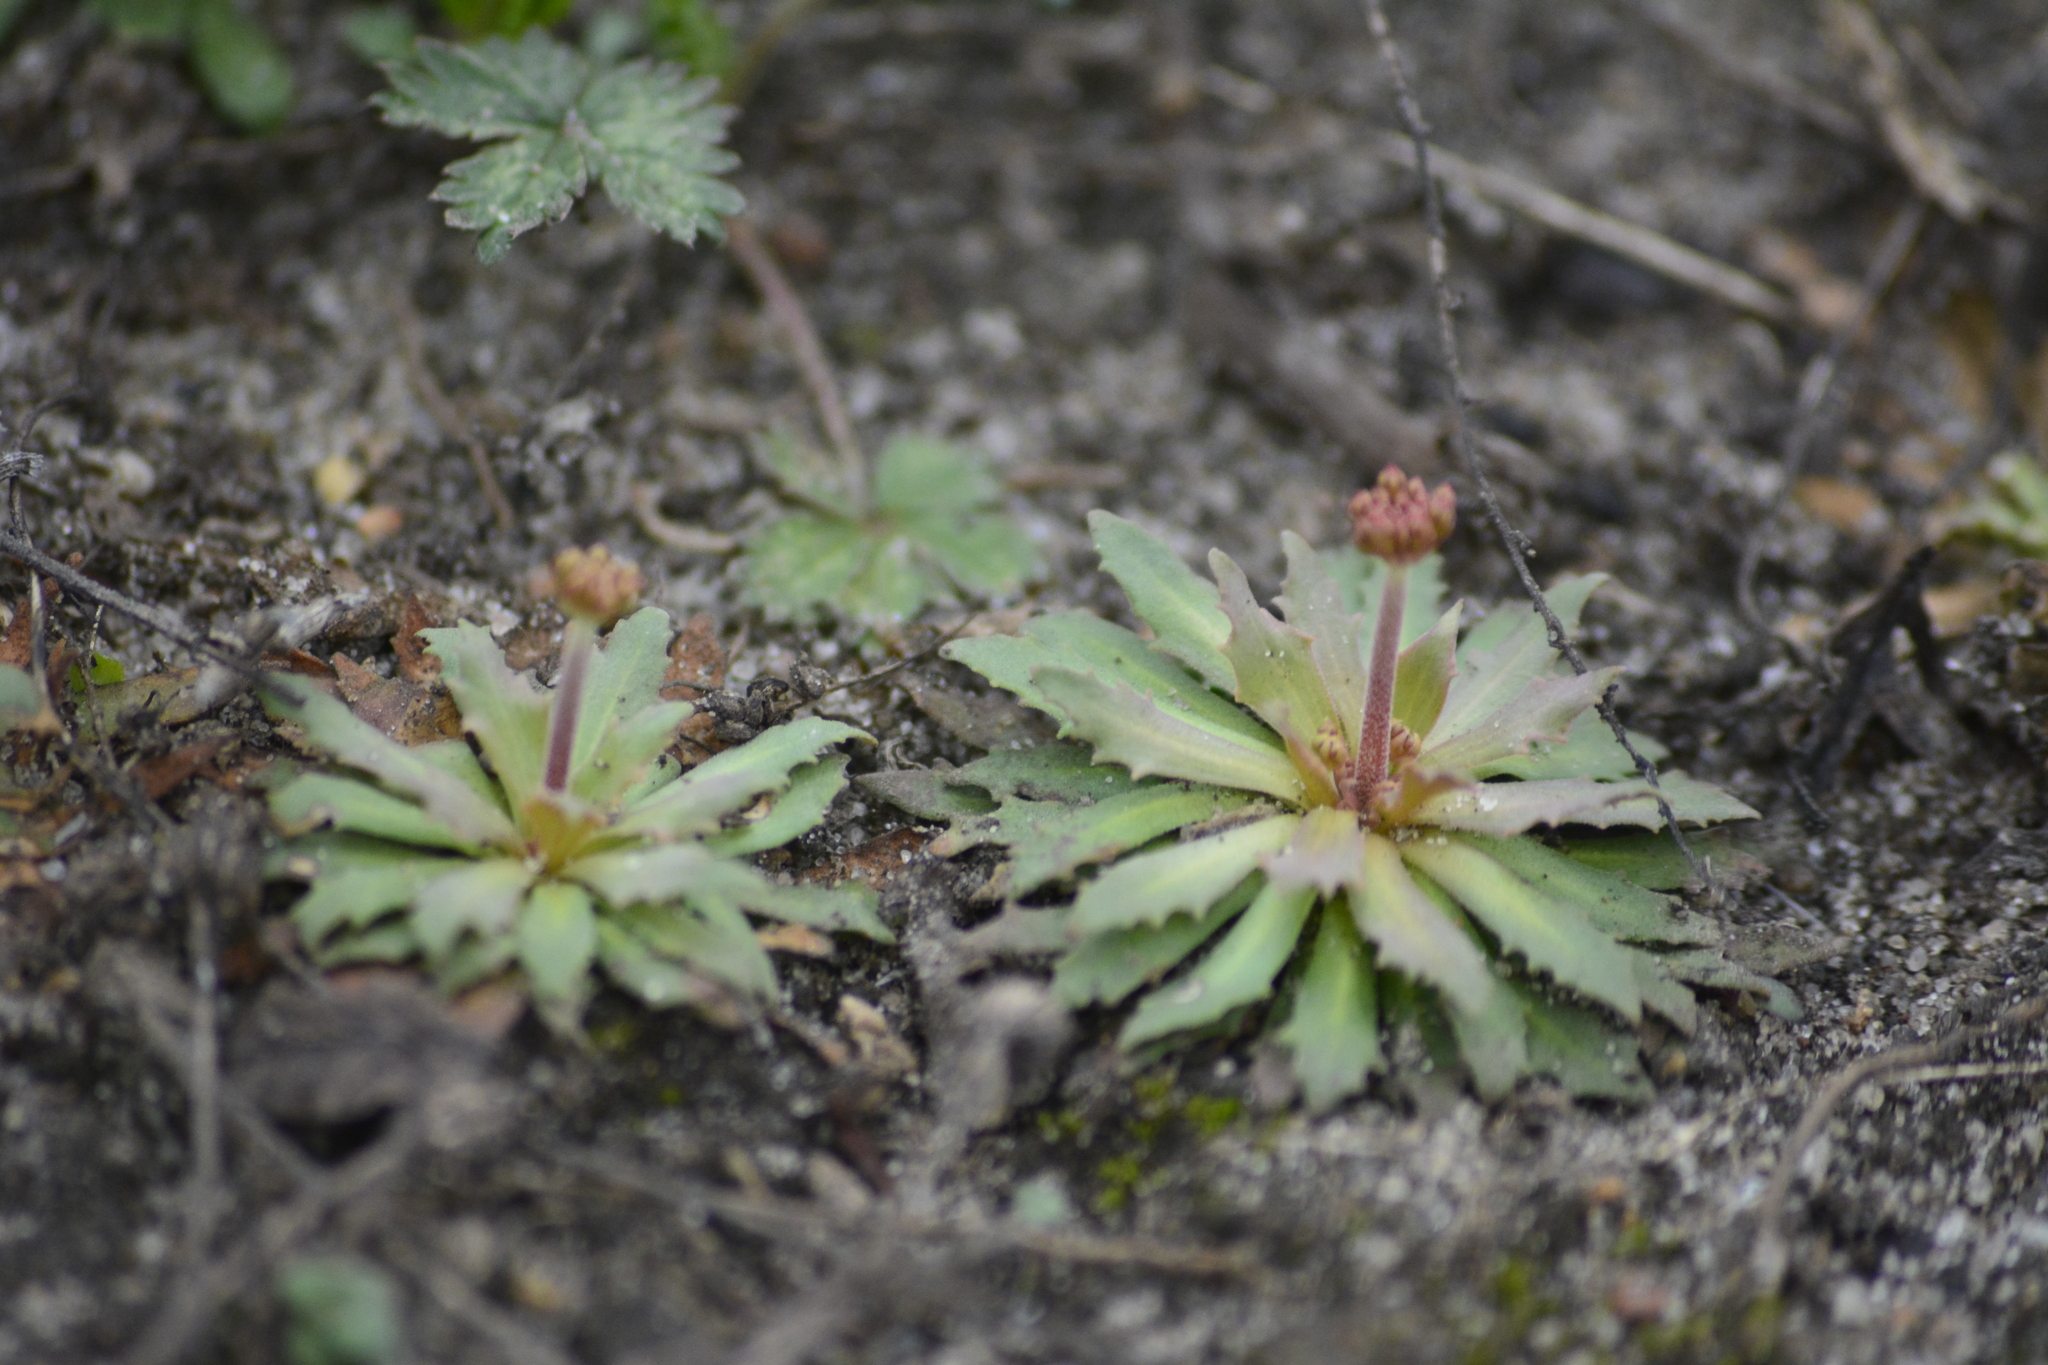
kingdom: Plantae
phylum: Tracheophyta
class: Magnoliopsida
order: Ericales
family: Primulaceae
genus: Androsace
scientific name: Androsace septentrionalis
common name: Hairy northern fairy-candelabra
